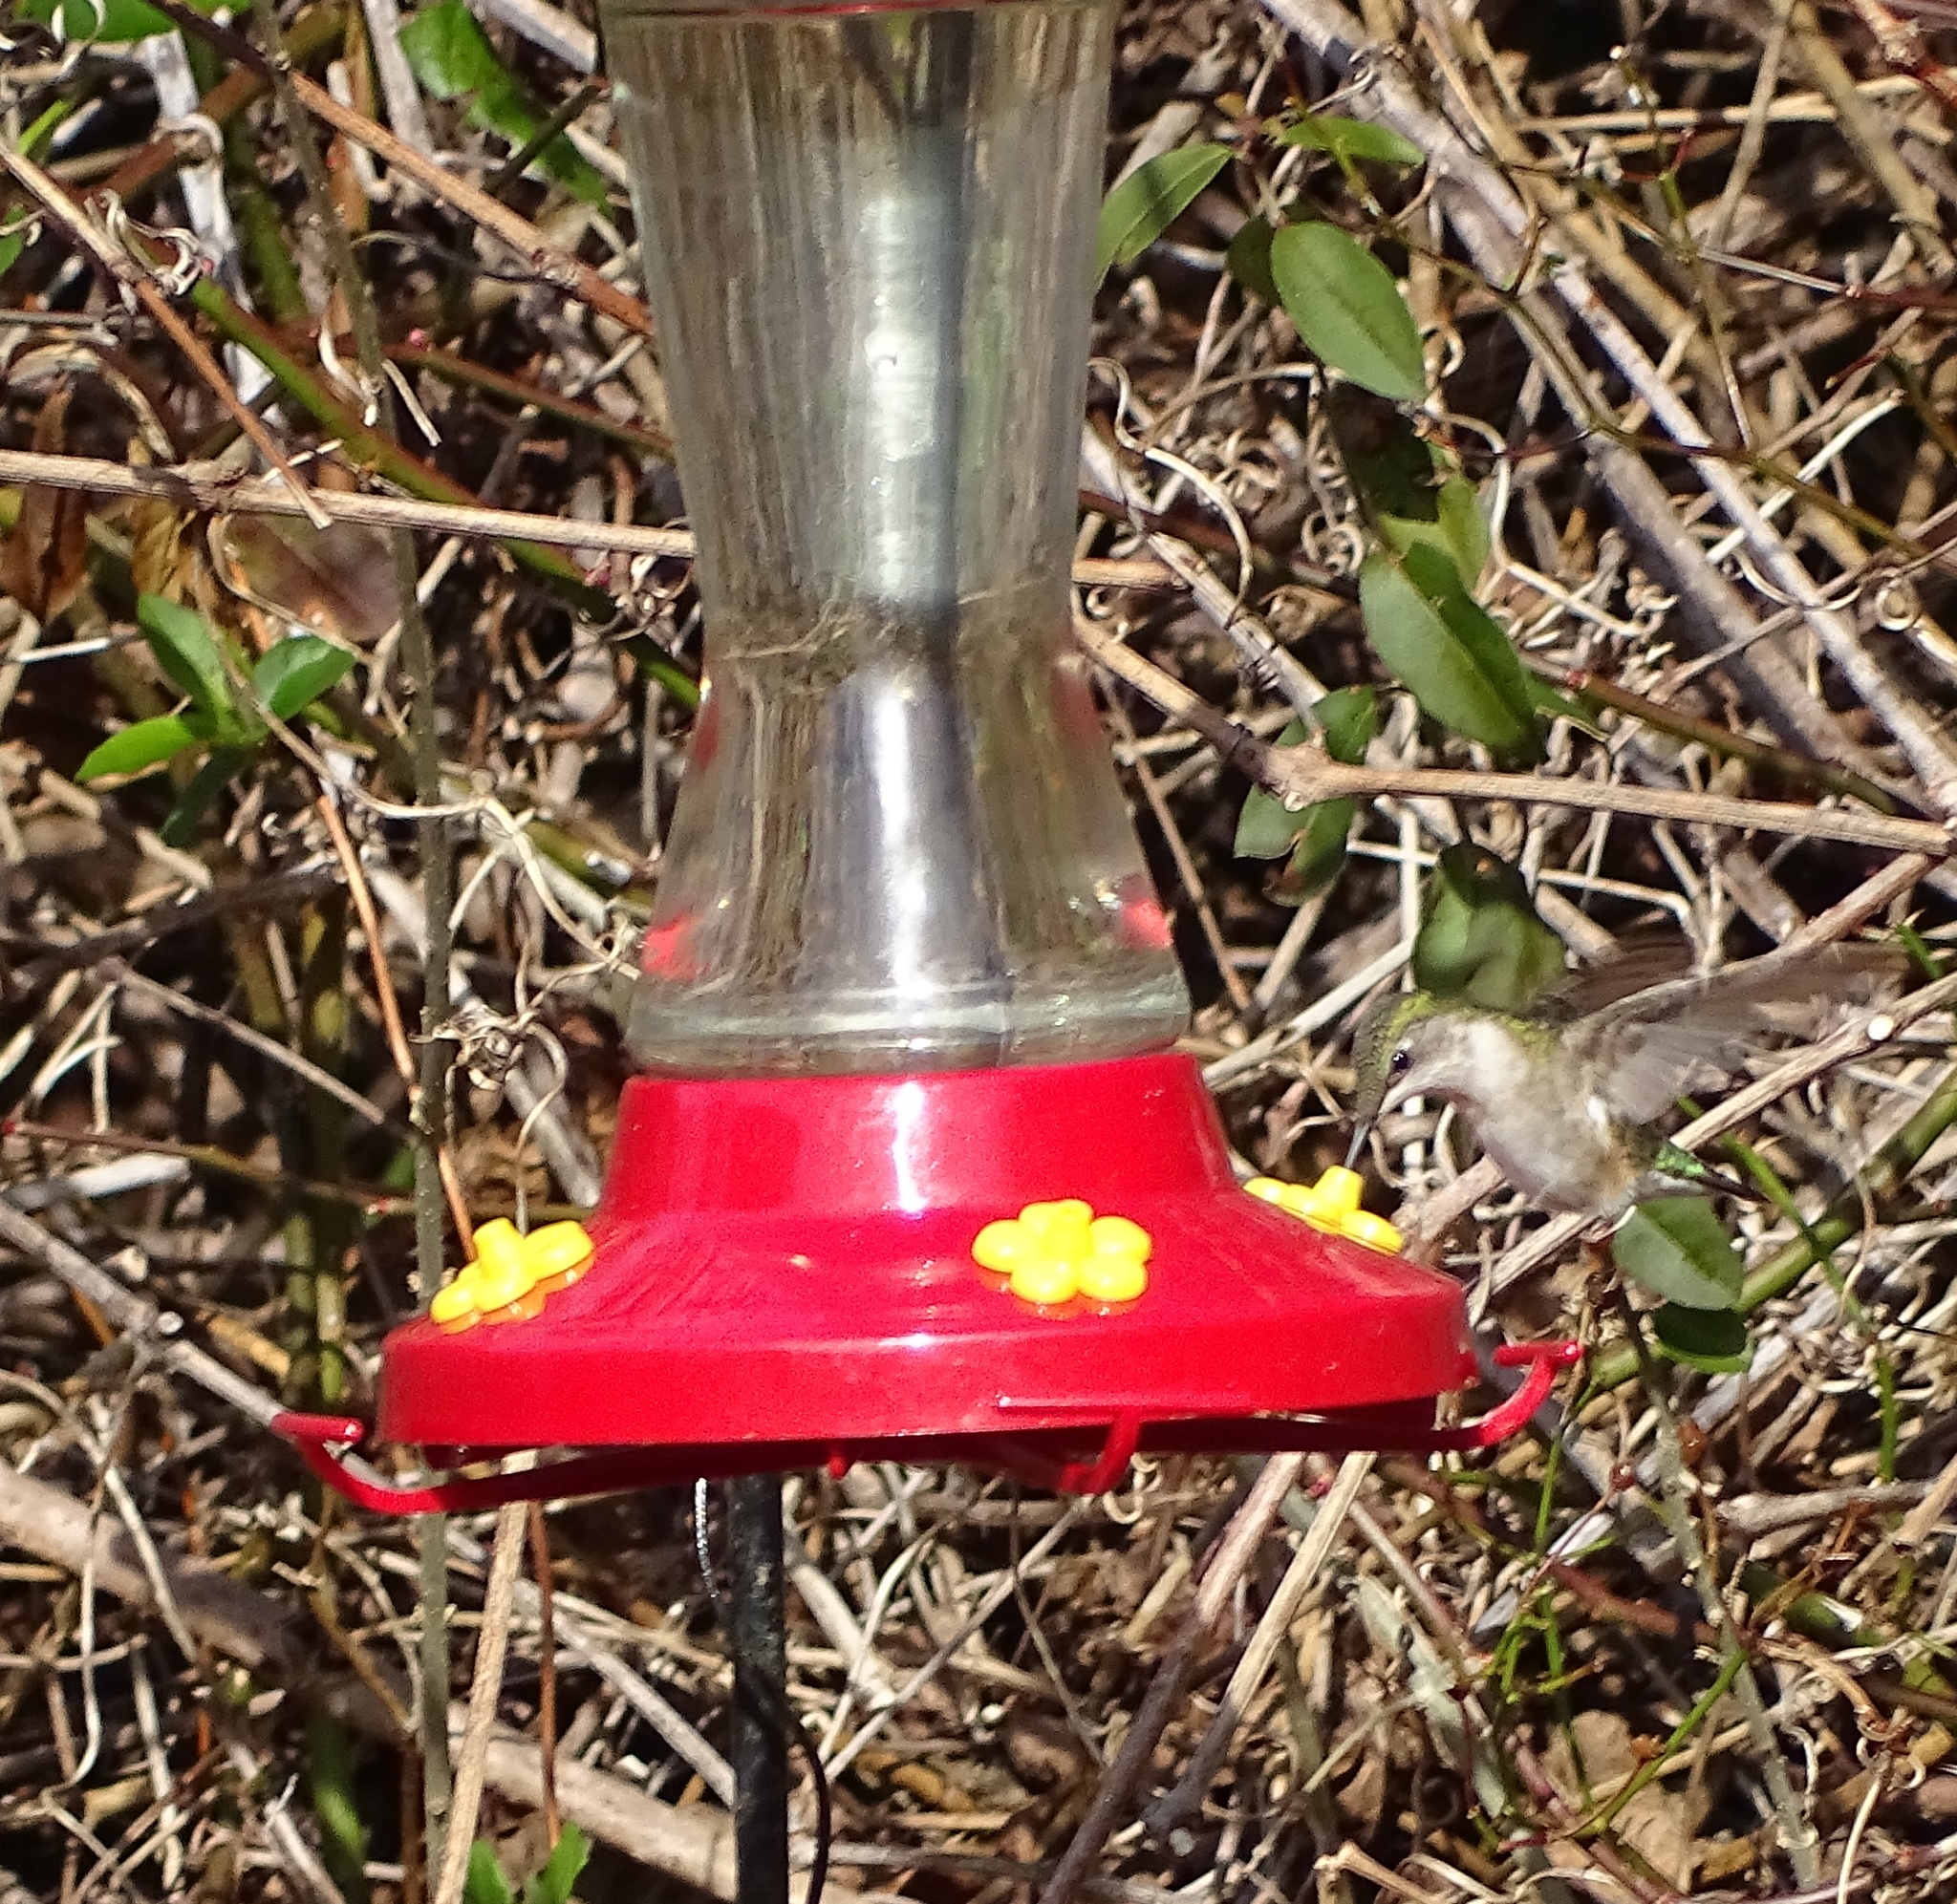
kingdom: Animalia
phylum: Chordata
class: Aves
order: Apodiformes
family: Trochilidae
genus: Archilochus
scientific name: Archilochus colubris
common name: Ruby-throated hummingbird
